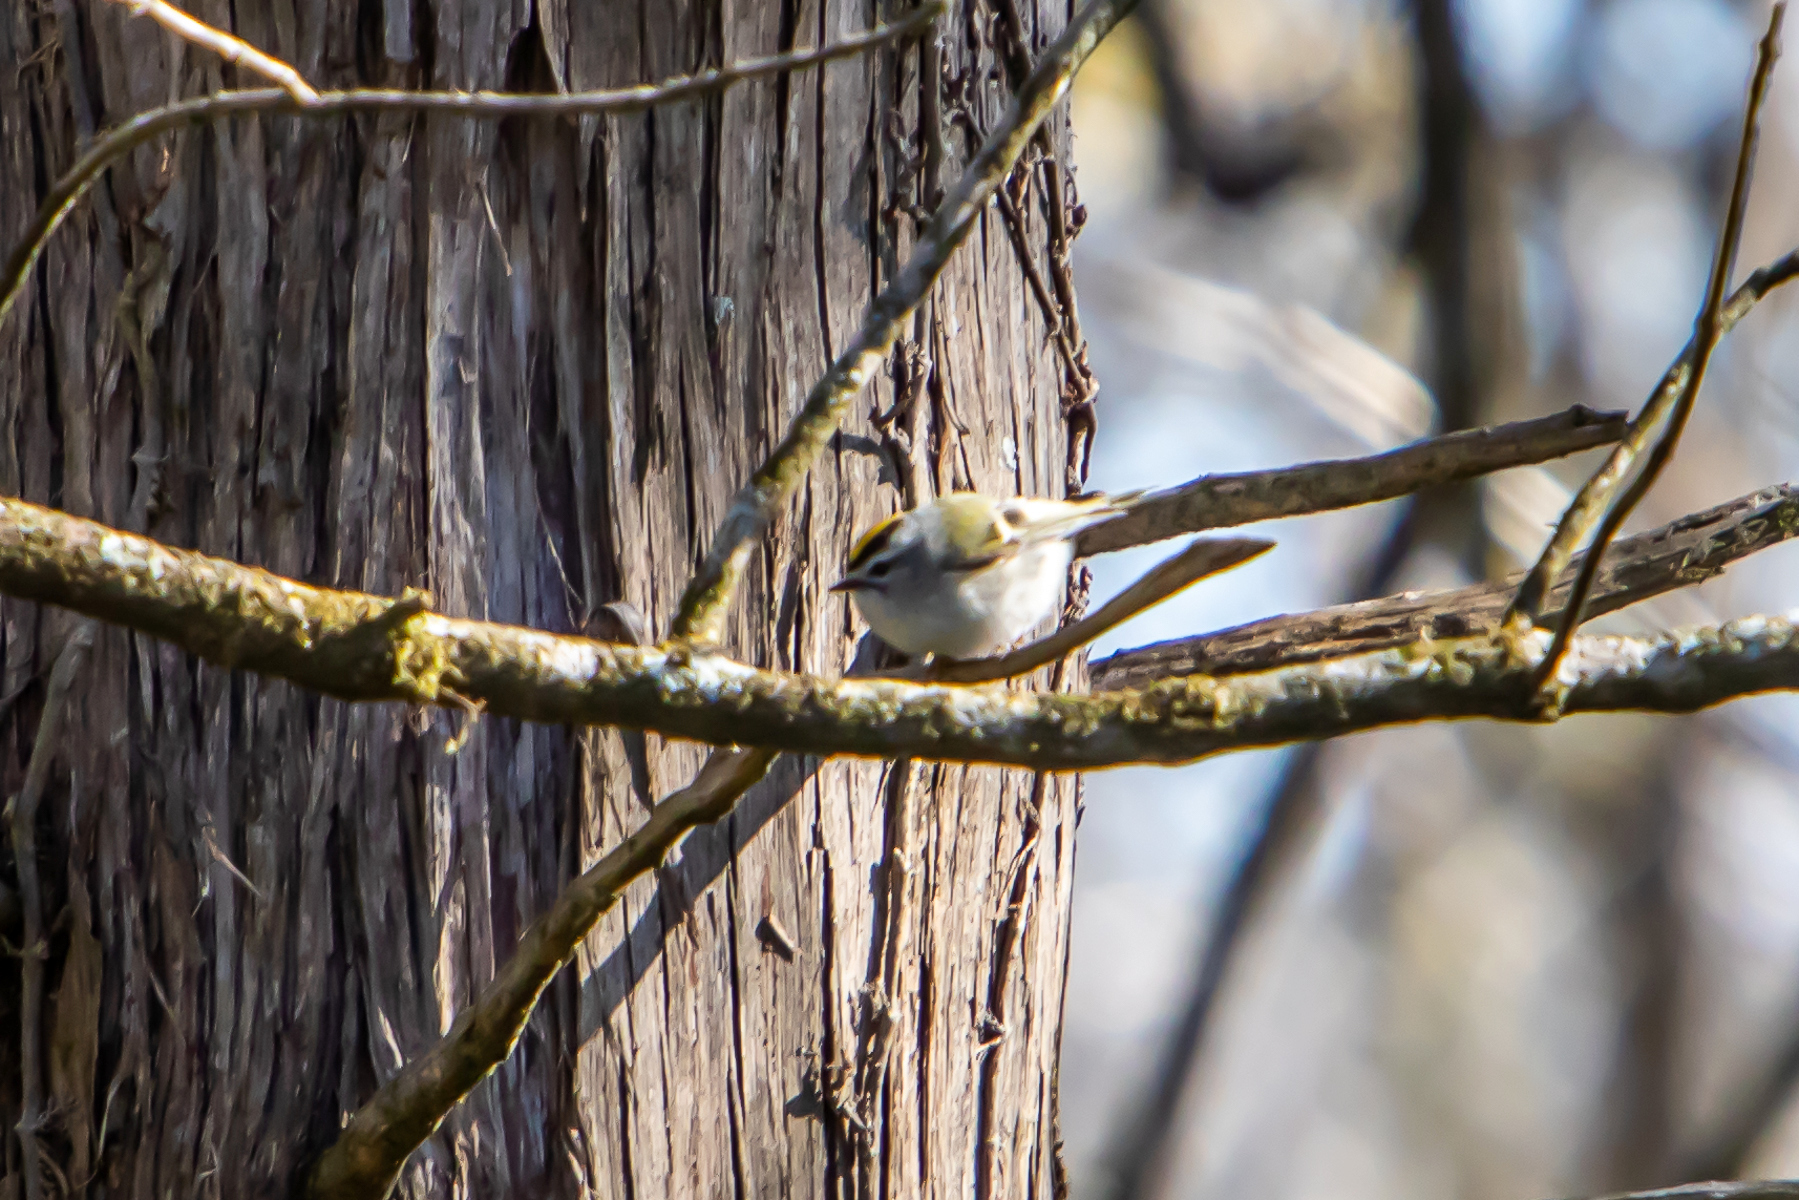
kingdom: Animalia
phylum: Chordata
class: Aves
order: Passeriformes
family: Regulidae
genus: Regulus
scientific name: Regulus satrapa
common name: Golden-crowned kinglet
